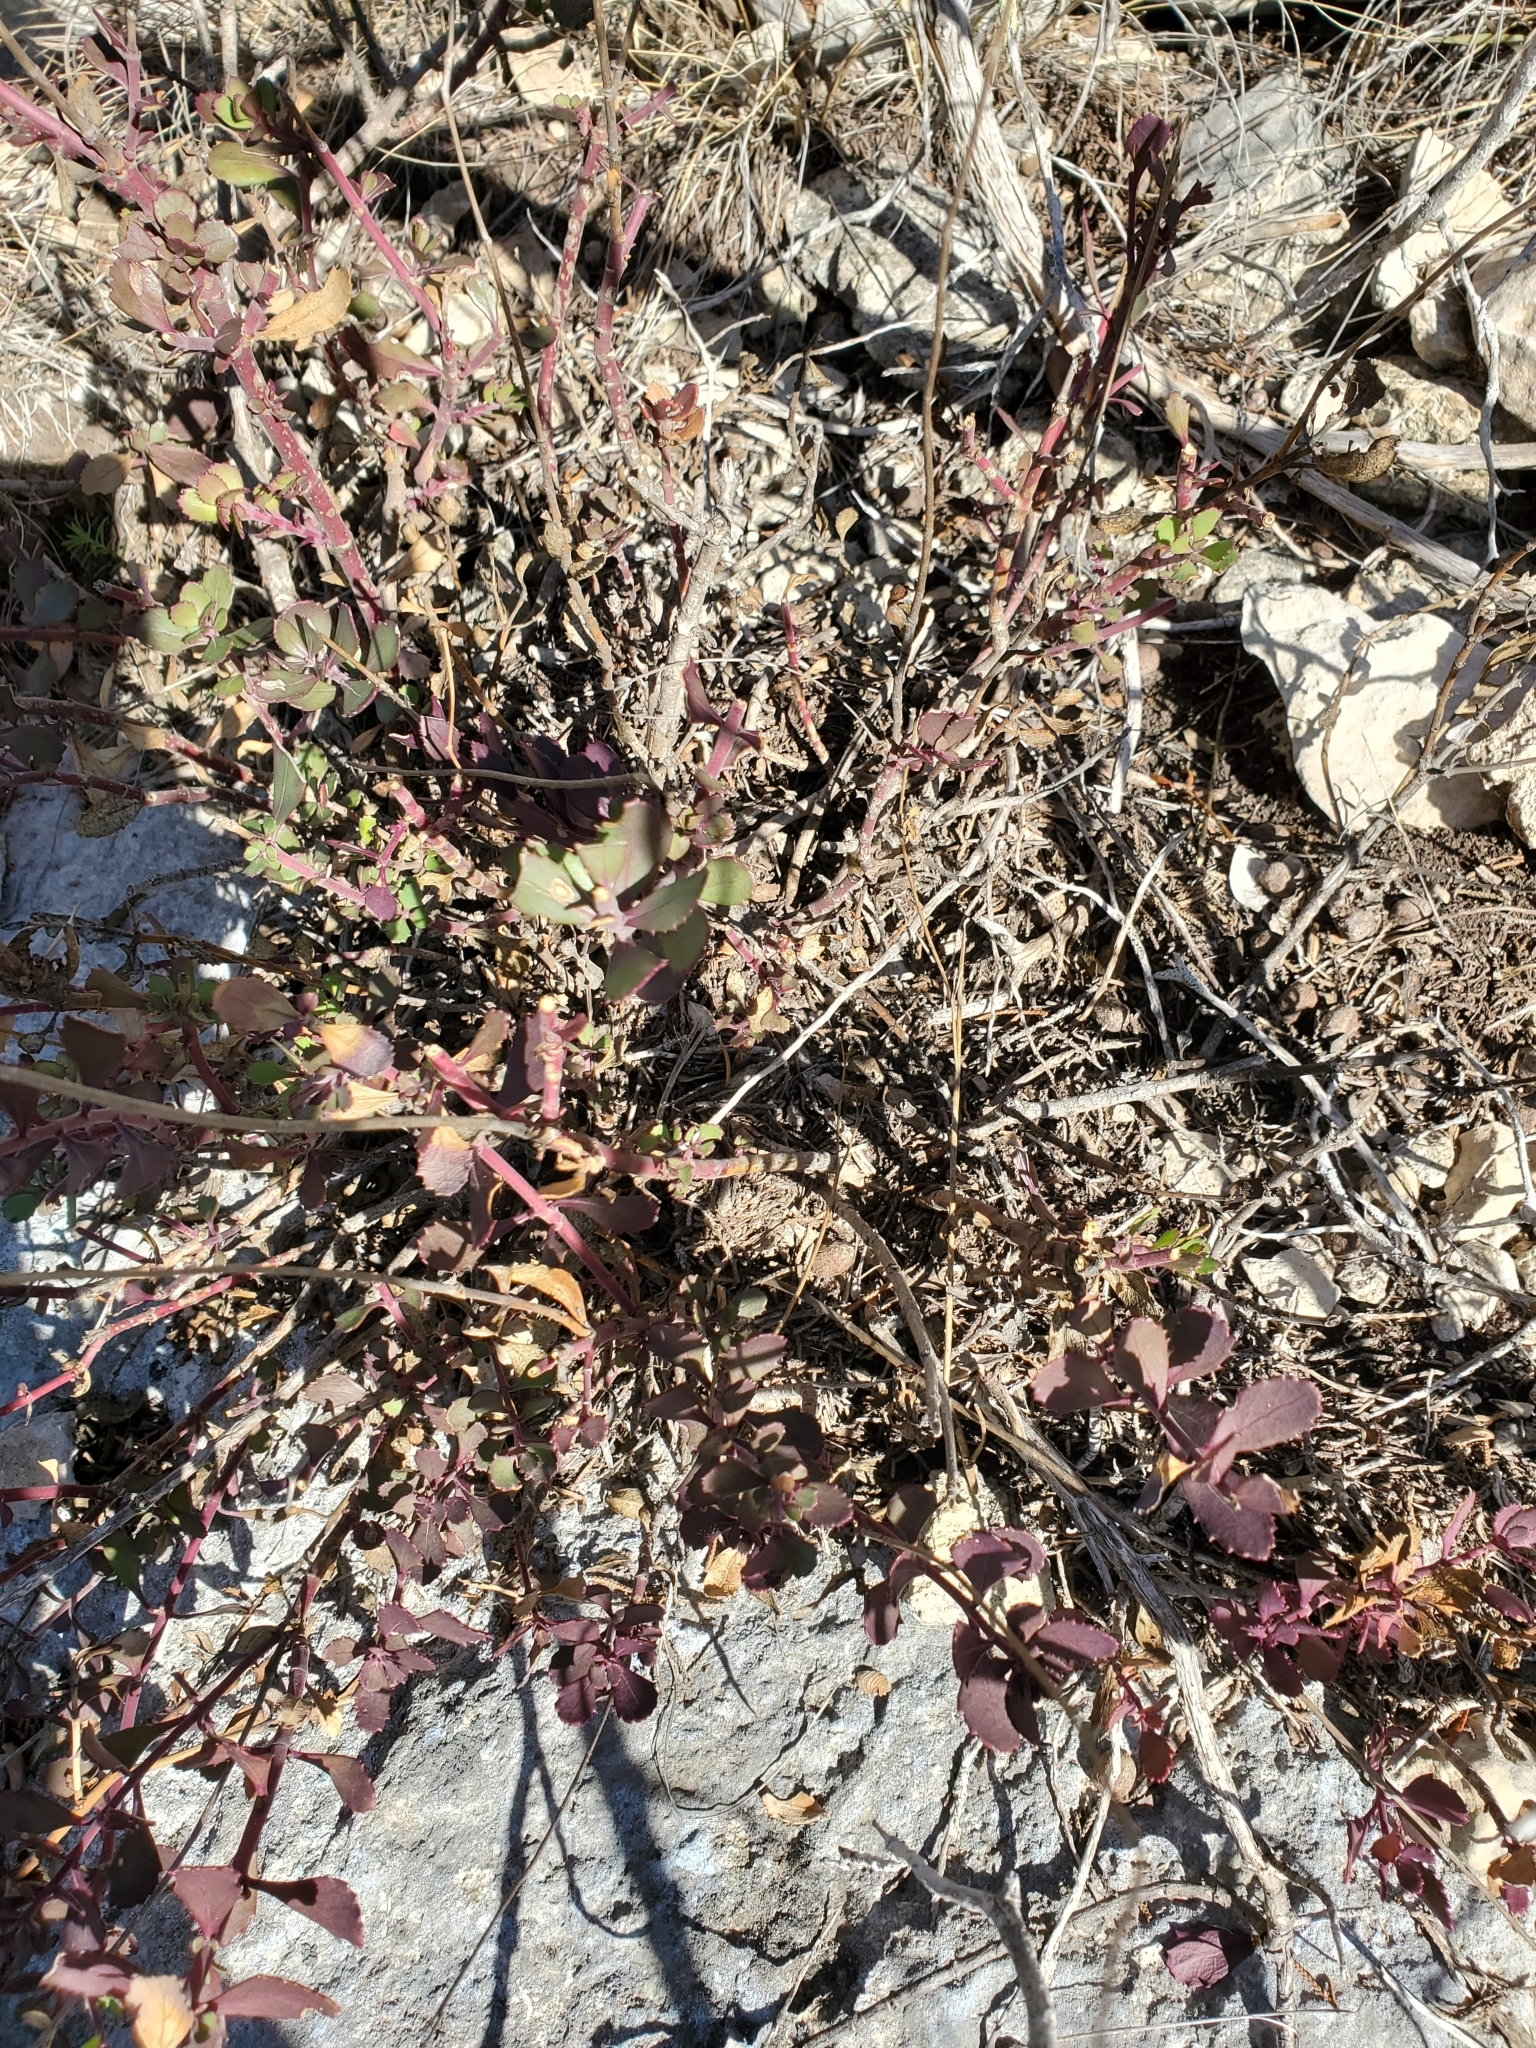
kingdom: Plantae
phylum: Tracheophyta
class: Magnoliopsida
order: Lamiales
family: Plantaginaceae
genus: Penstemon
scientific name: Penstemon baccharifolius
